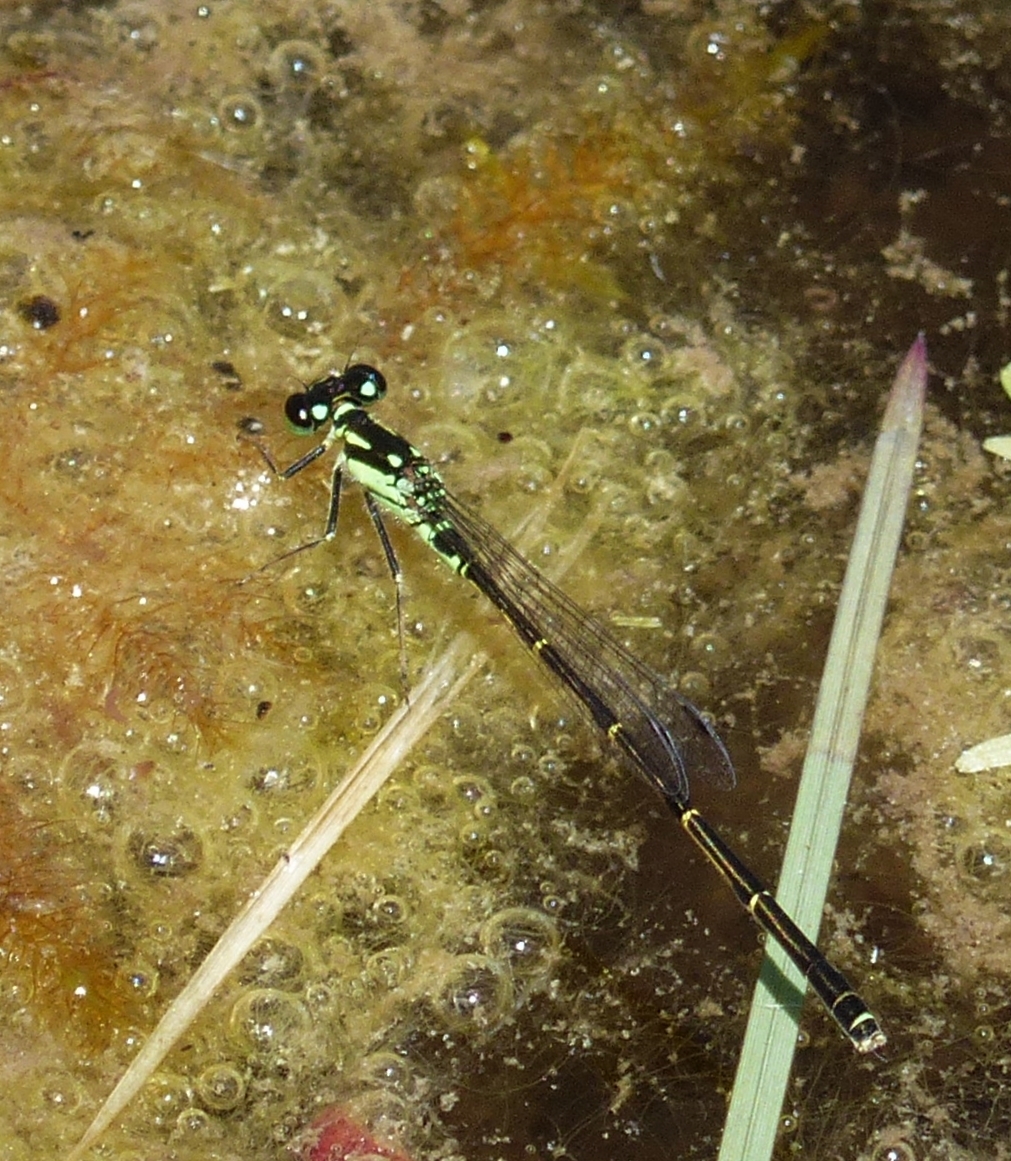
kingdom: Animalia
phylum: Arthropoda
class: Insecta
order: Odonata
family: Coenagrionidae
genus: Ischnura
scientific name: Ischnura posita
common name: Fragile forktail
